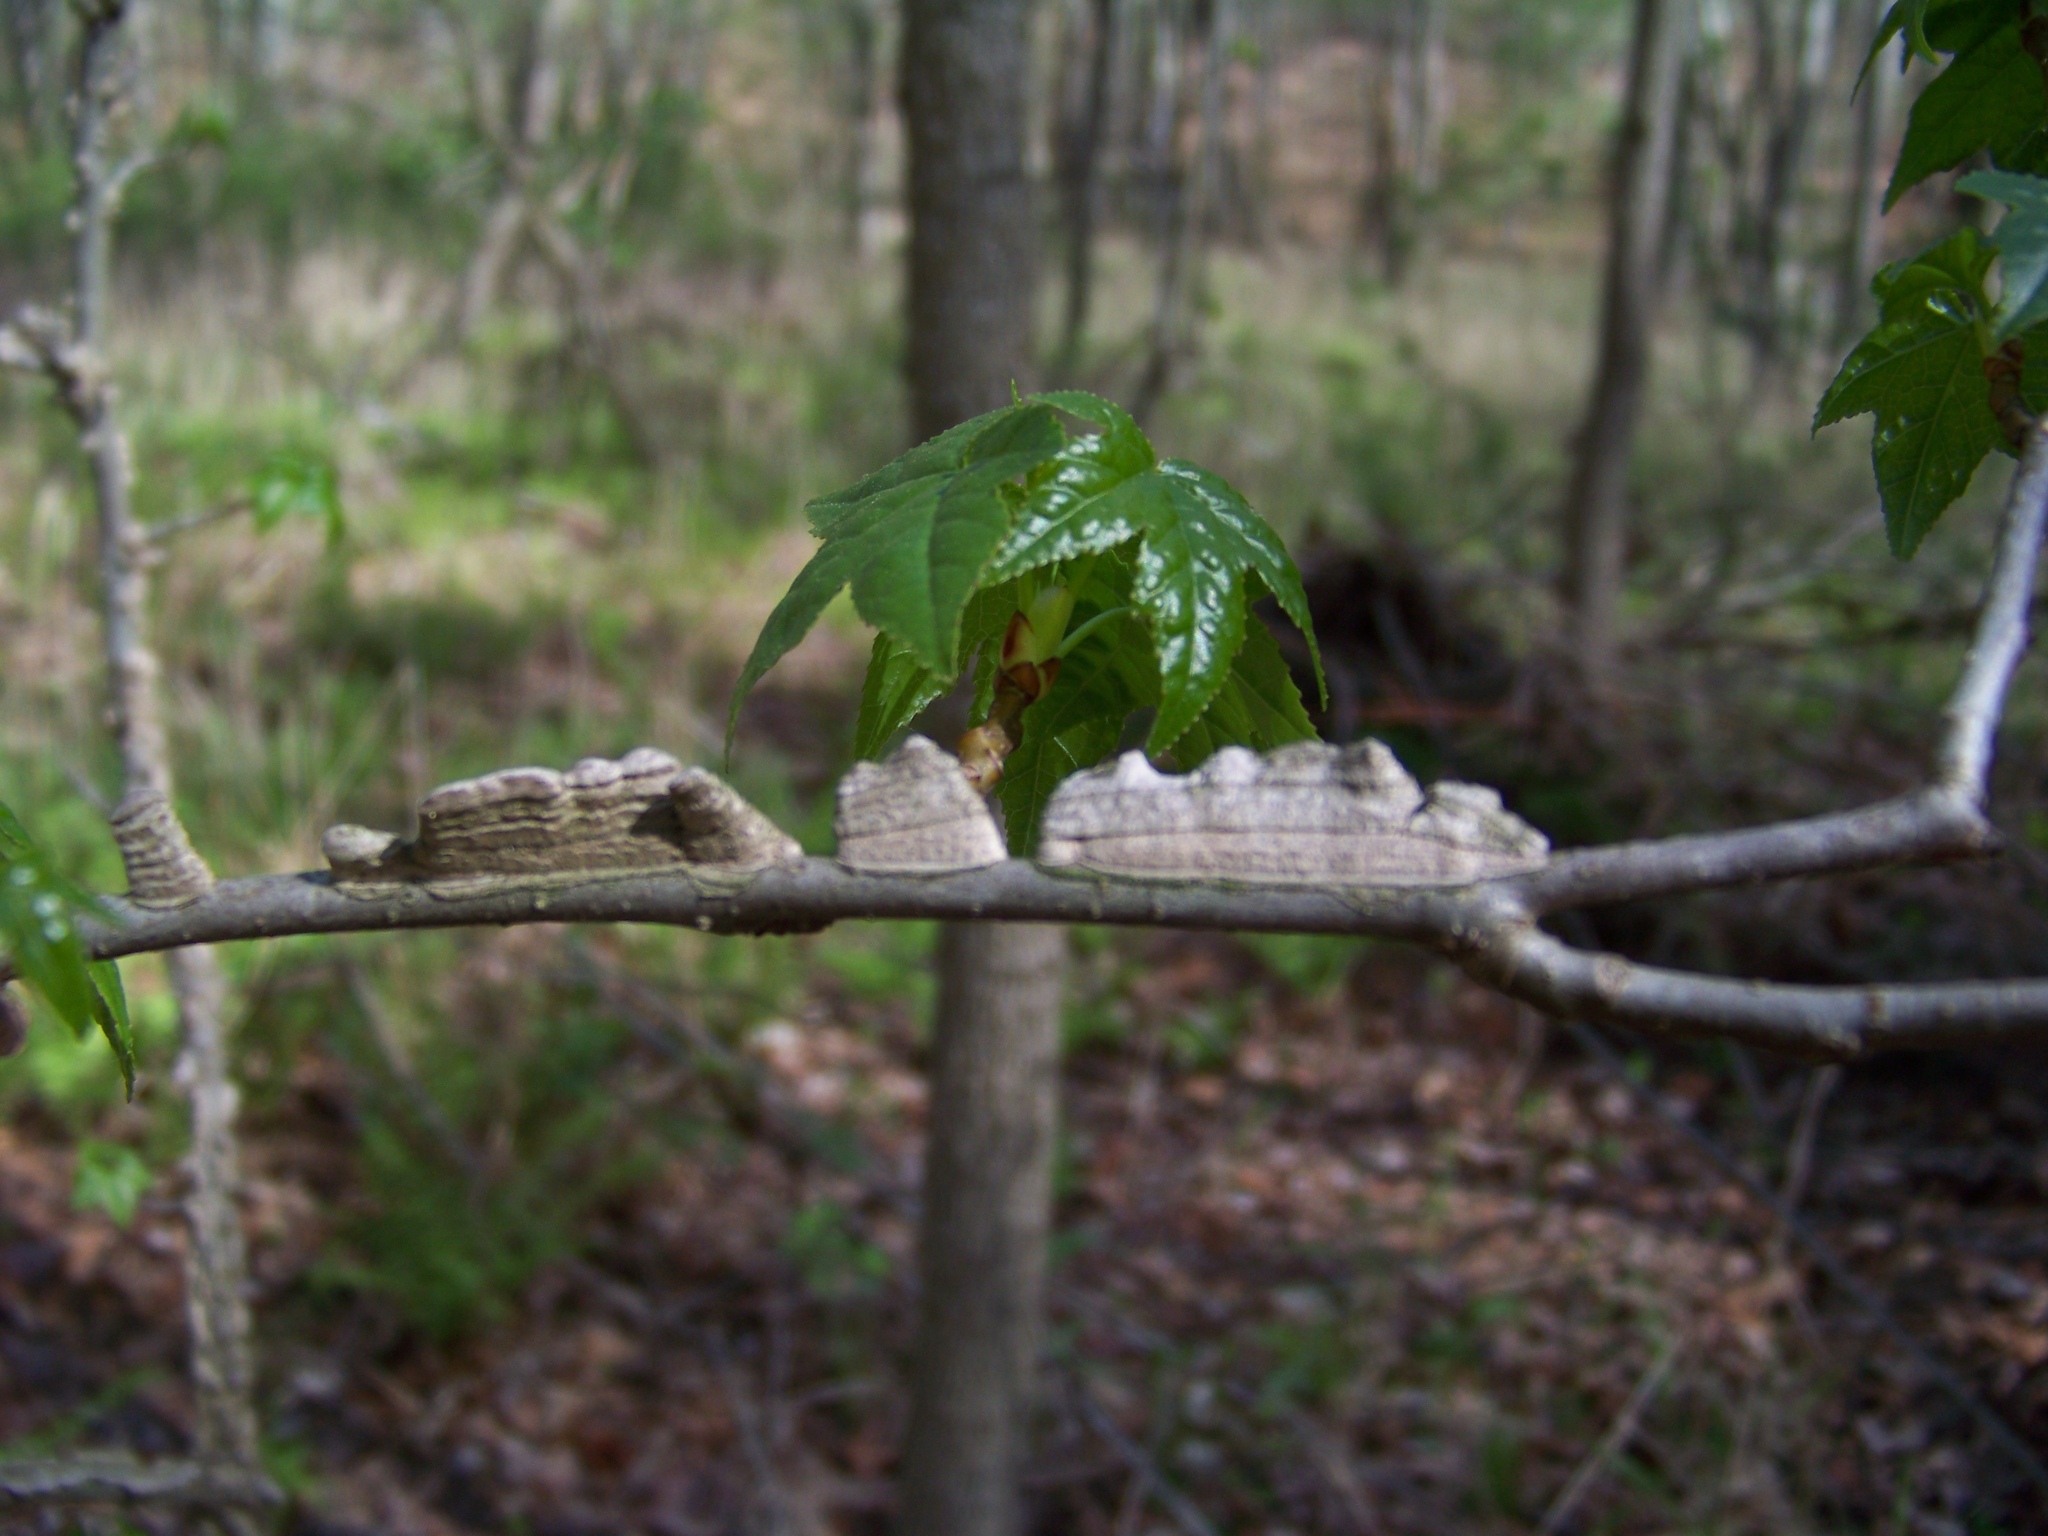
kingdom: Plantae
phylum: Tracheophyta
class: Magnoliopsida
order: Saxifragales
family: Altingiaceae
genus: Liquidambar
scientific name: Liquidambar styraciflua
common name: Sweet gum
